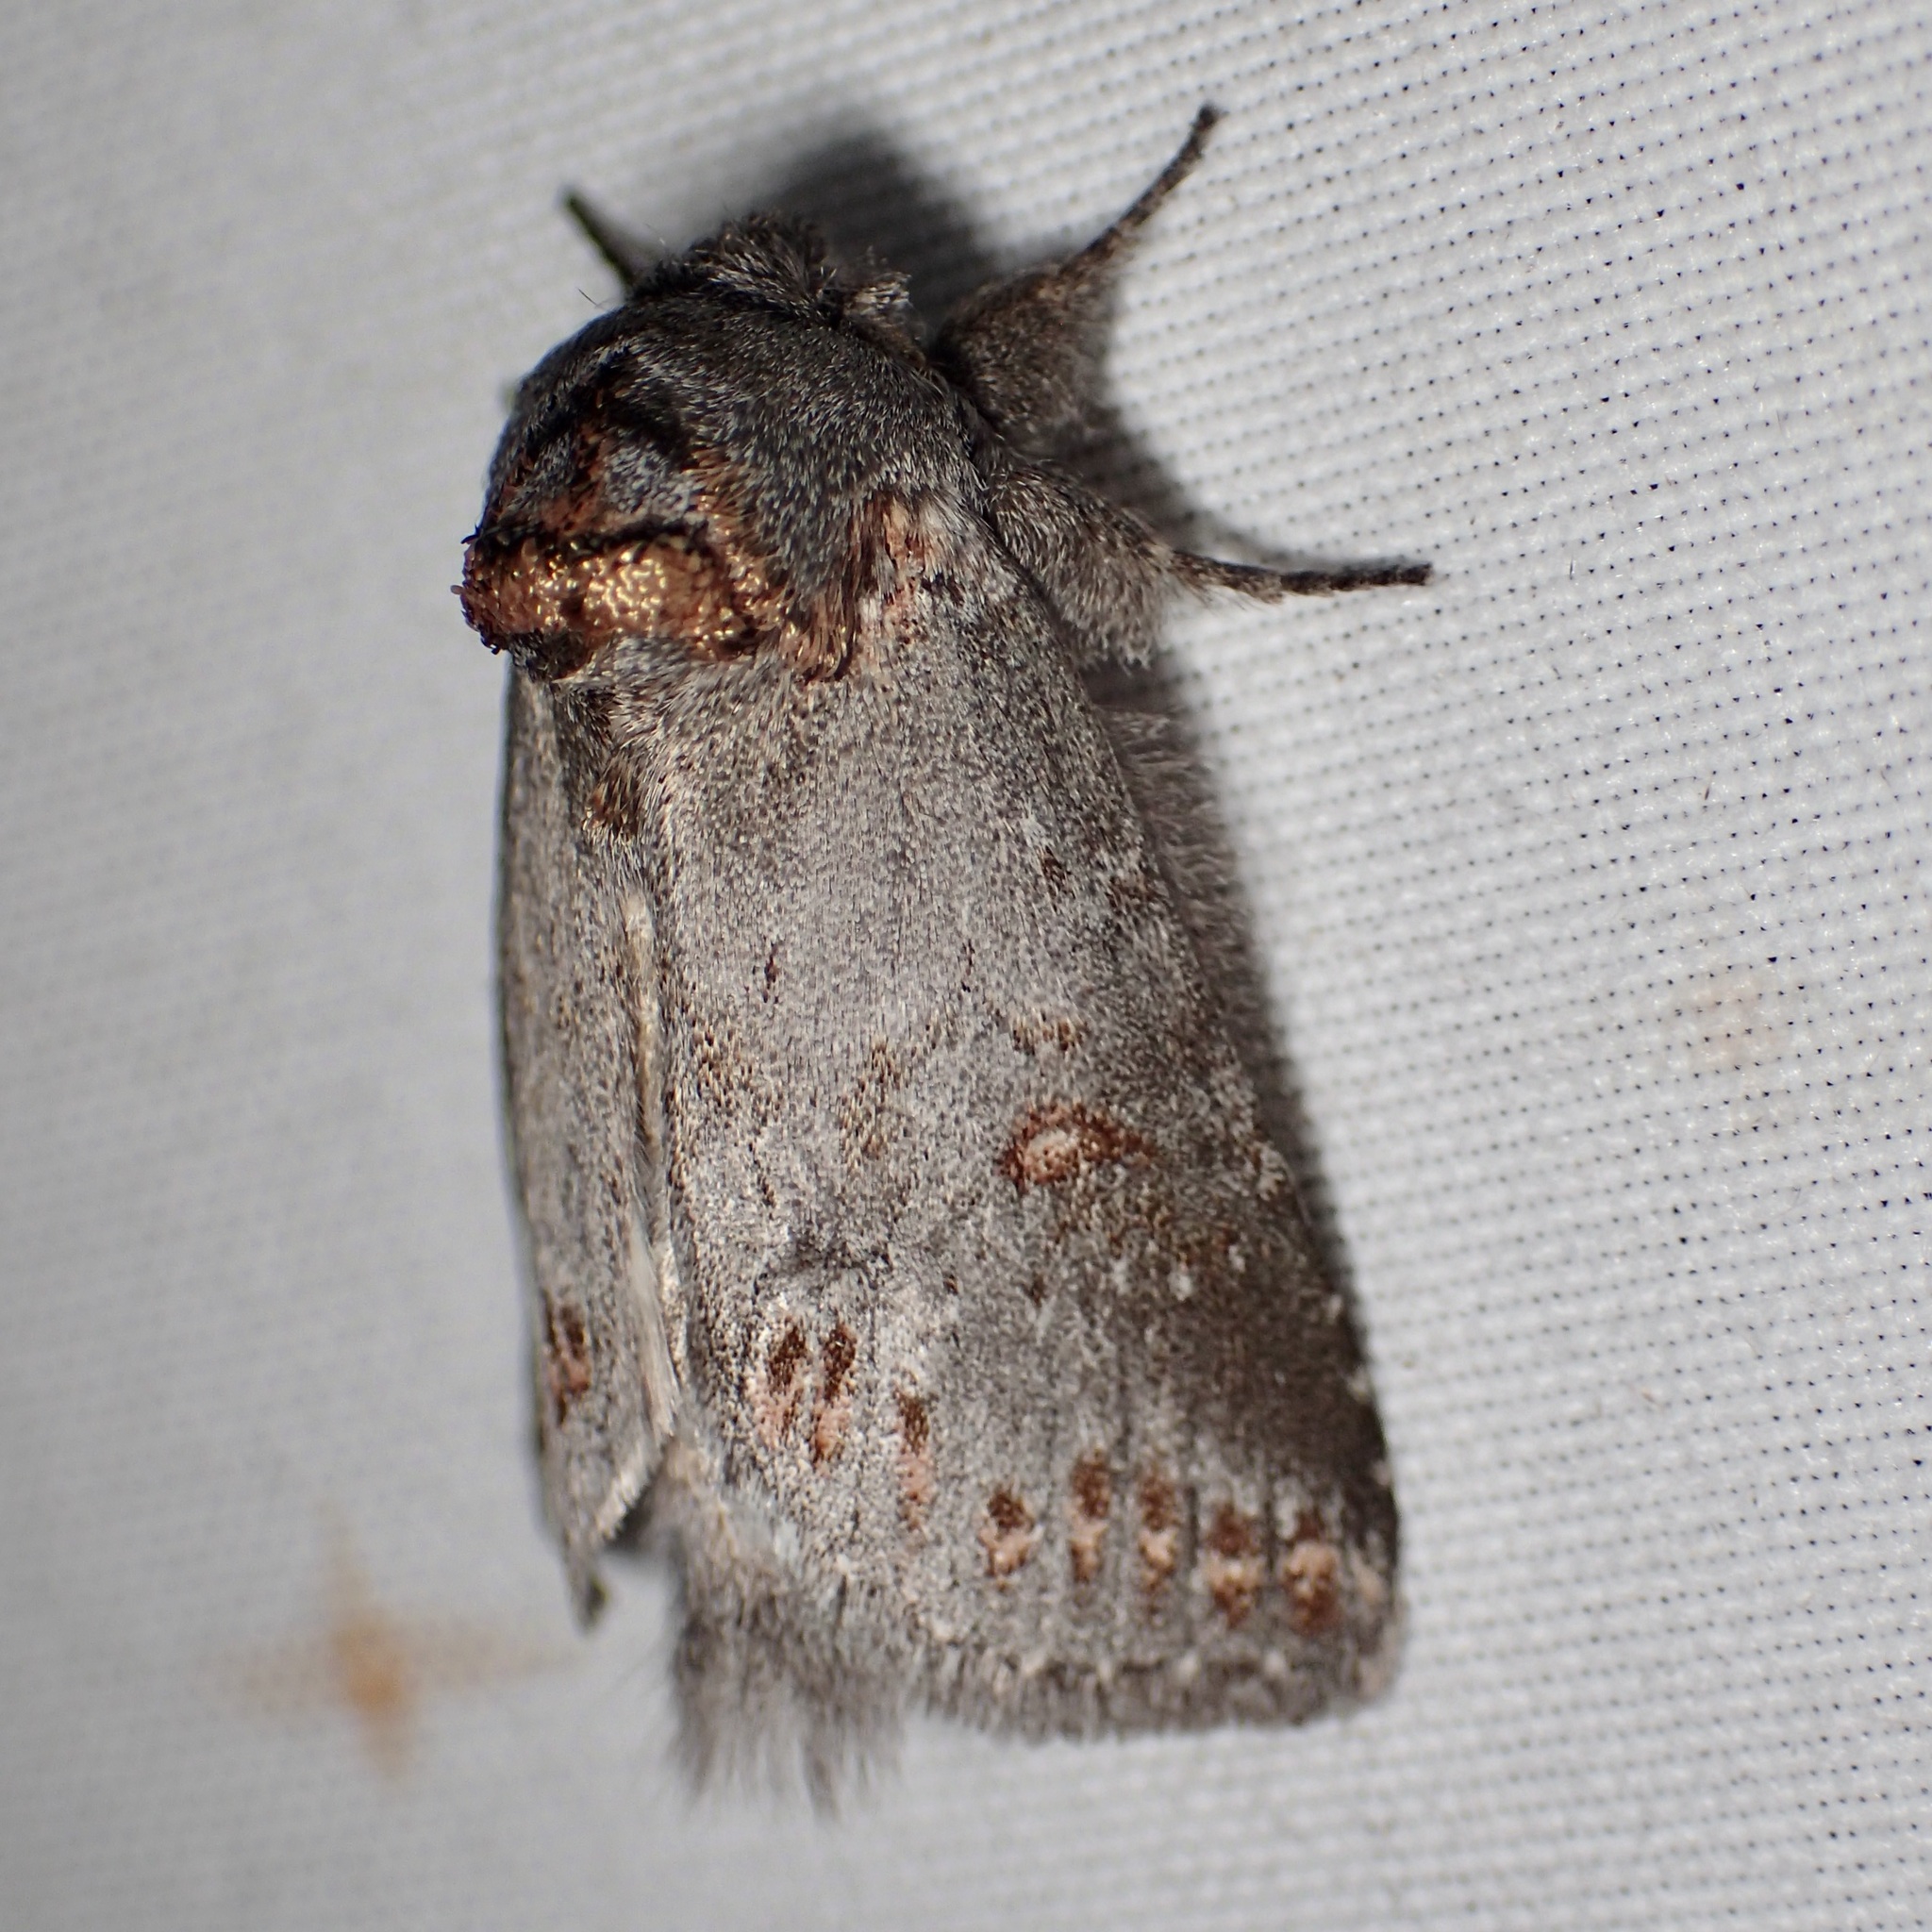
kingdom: Animalia
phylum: Arthropoda
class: Insecta
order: Lepidoptera
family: Notodontidae
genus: Theroa
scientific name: Theroa zethus
